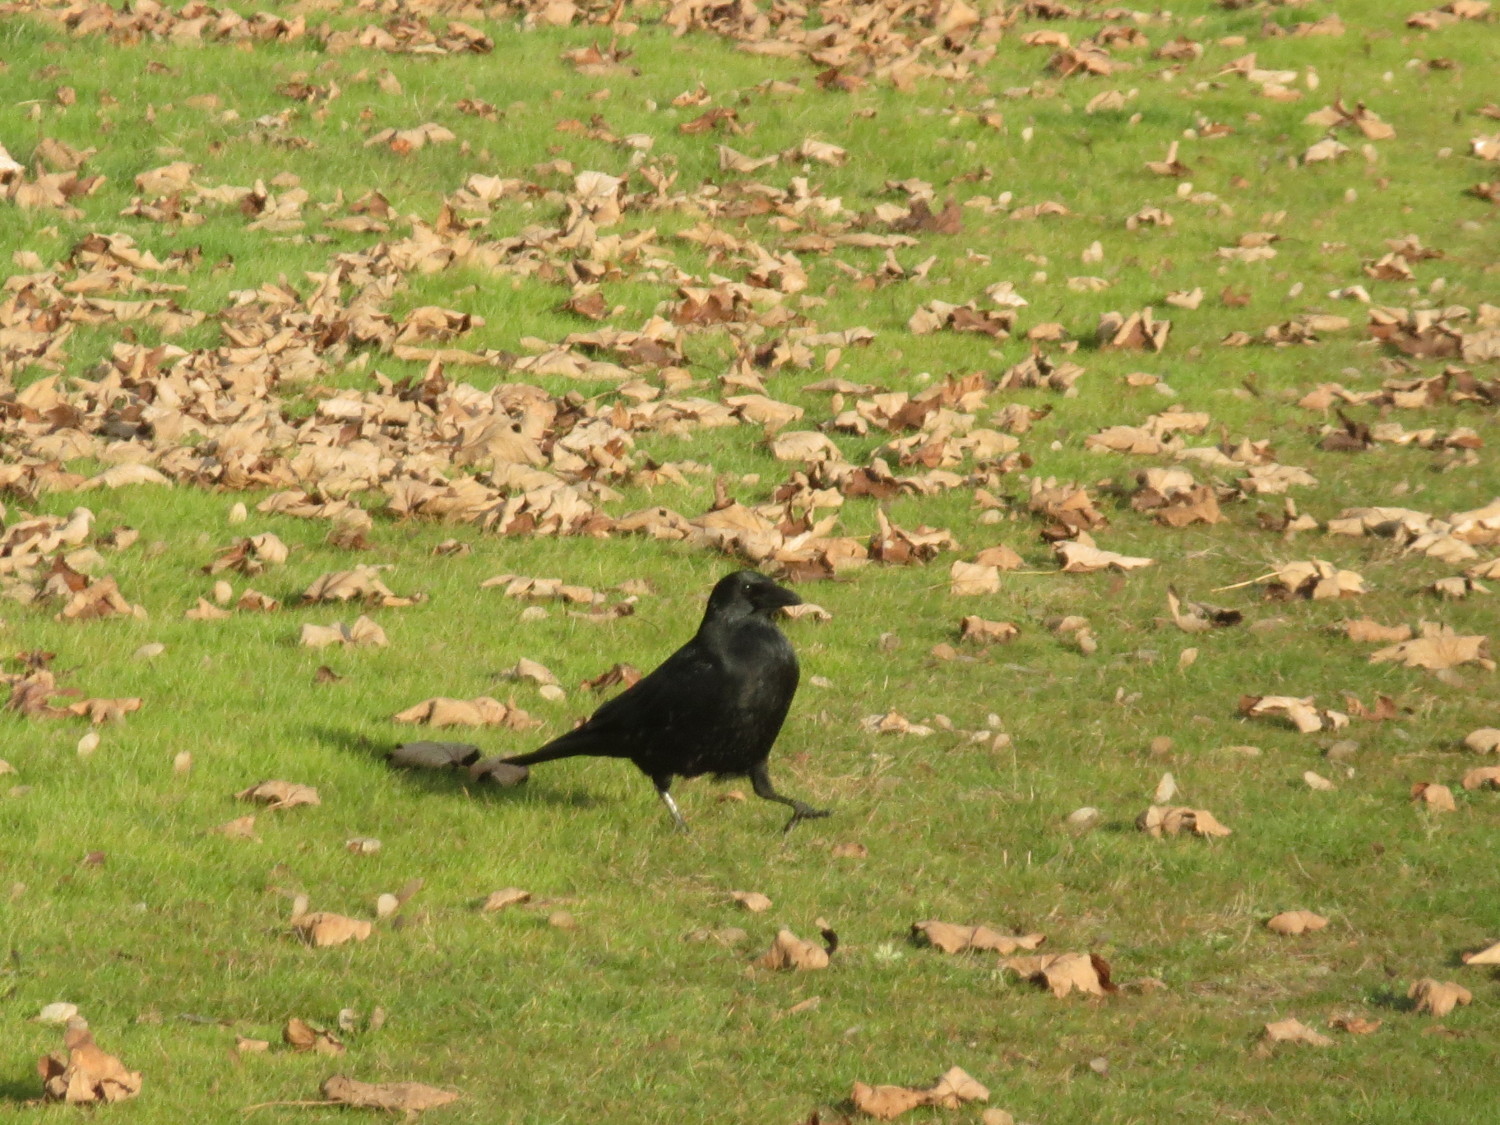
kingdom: Animalia
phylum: Chordata
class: Aves
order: Passeriformes
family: Corvidae
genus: Corvus
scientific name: Corvus corone
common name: Carrion crow
